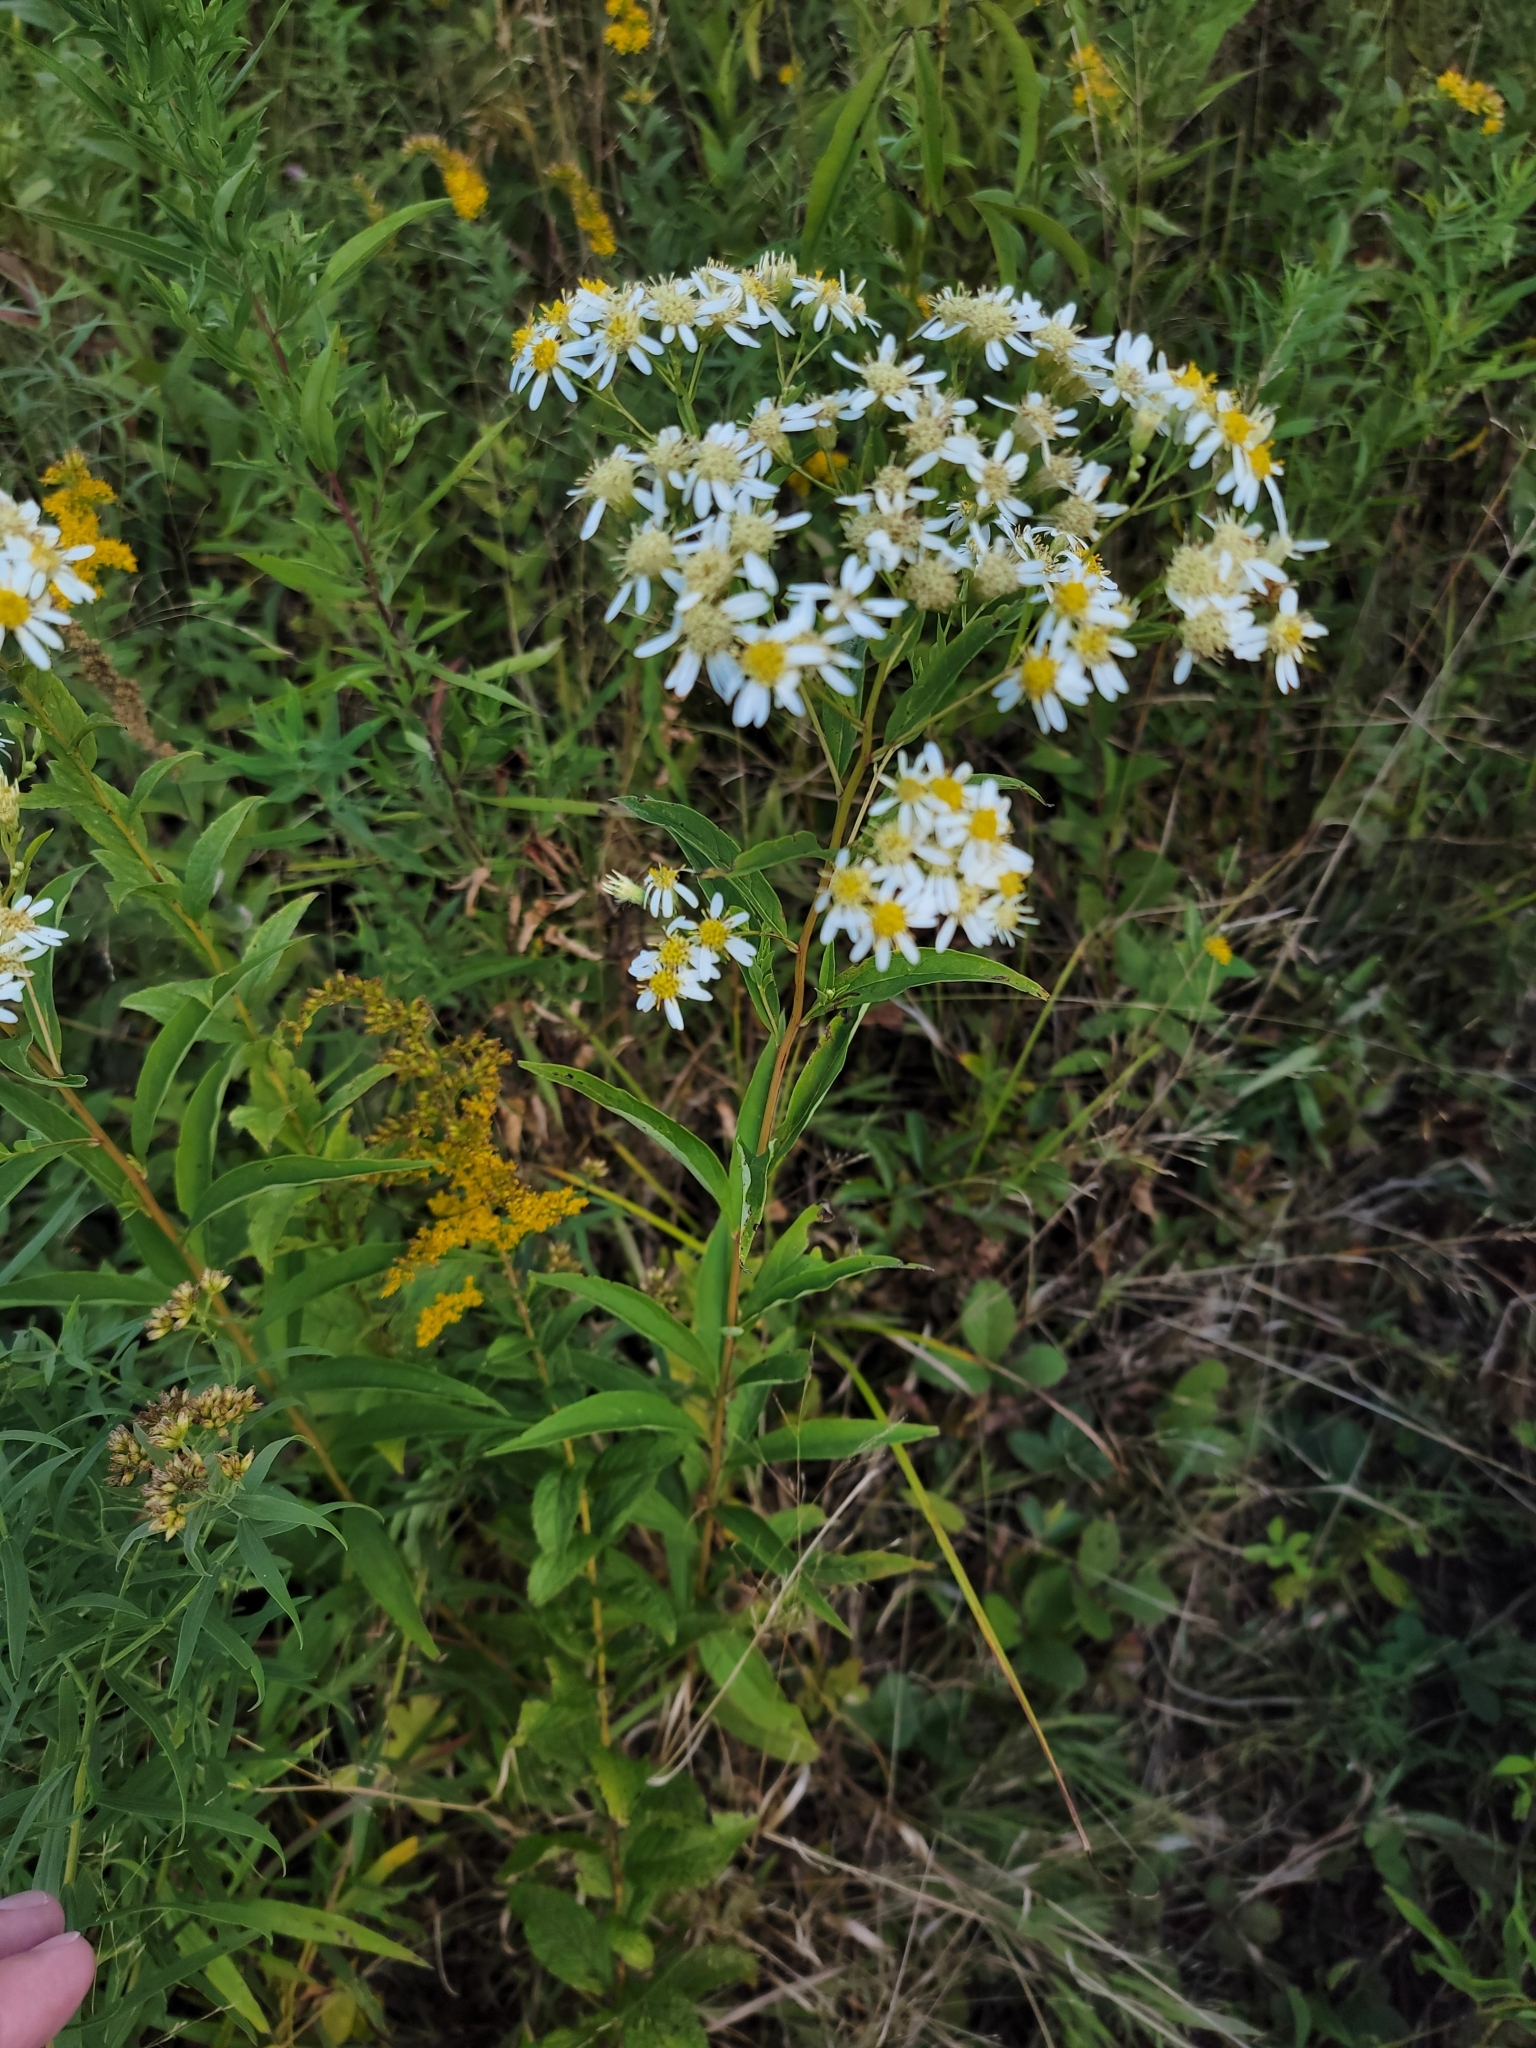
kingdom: Plantae
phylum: Tracheophyta
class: Magnoliopsida
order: Asterales
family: Asteraceae
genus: Doellingeria
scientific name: Doellingeria umbellata
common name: Flat-top white aster
